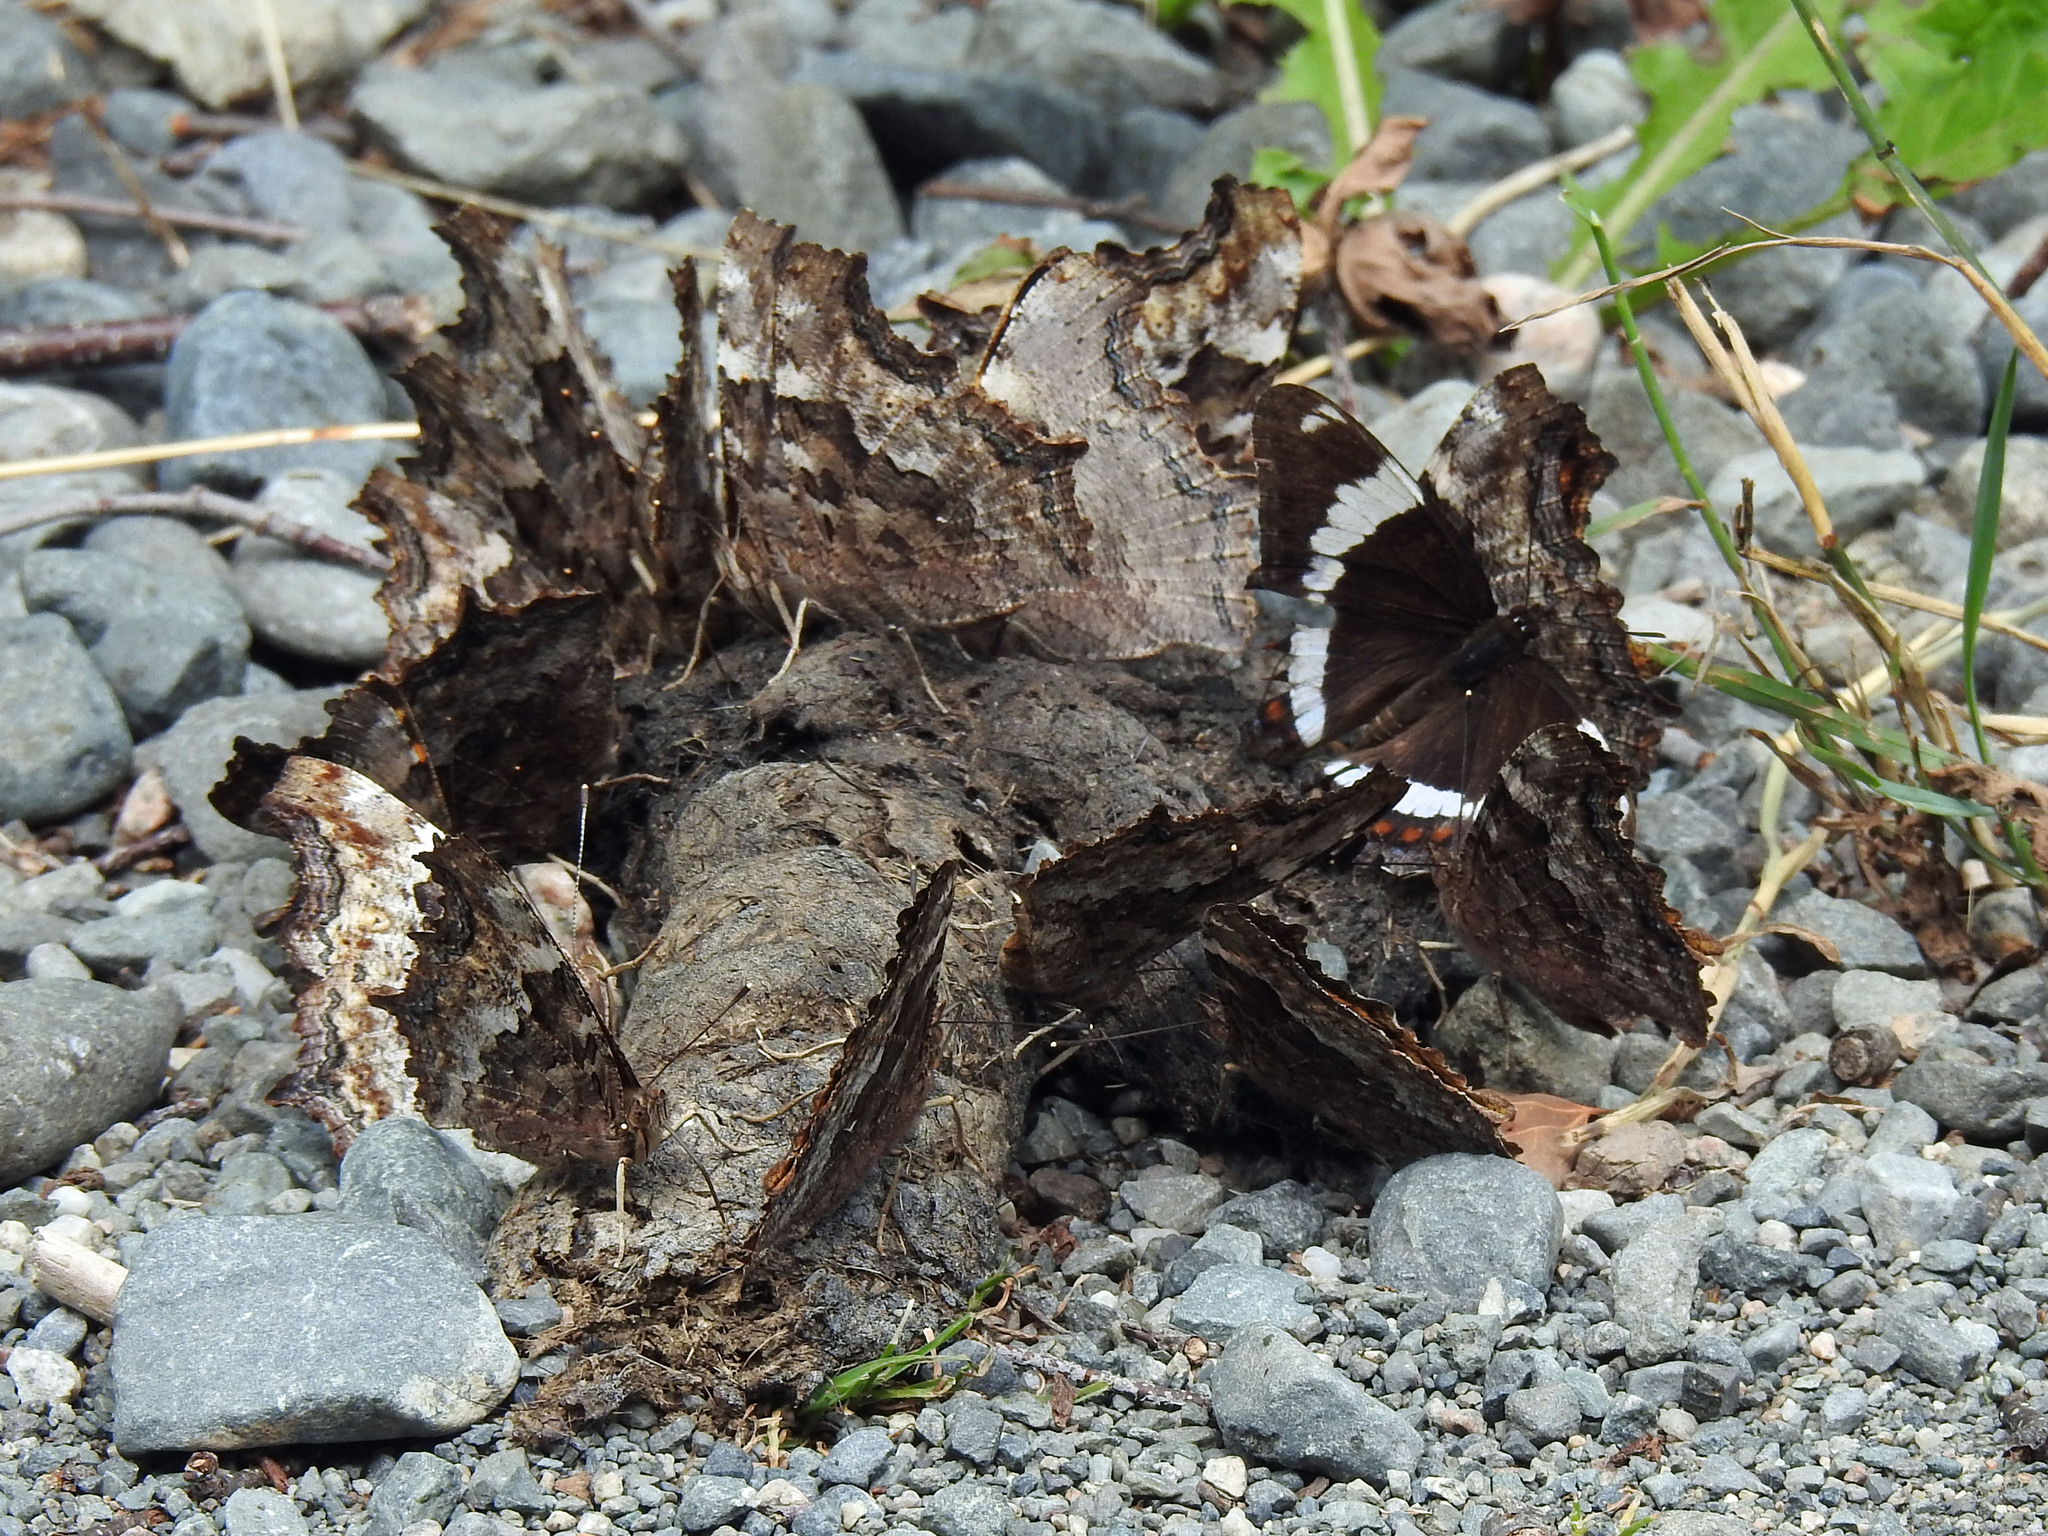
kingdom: Animalia
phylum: Arthropoda
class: Insecta
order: Lepidoptera
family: Nymphalidae
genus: Limenitis
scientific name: Limenitis arthemis
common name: Red-spotted admiral
